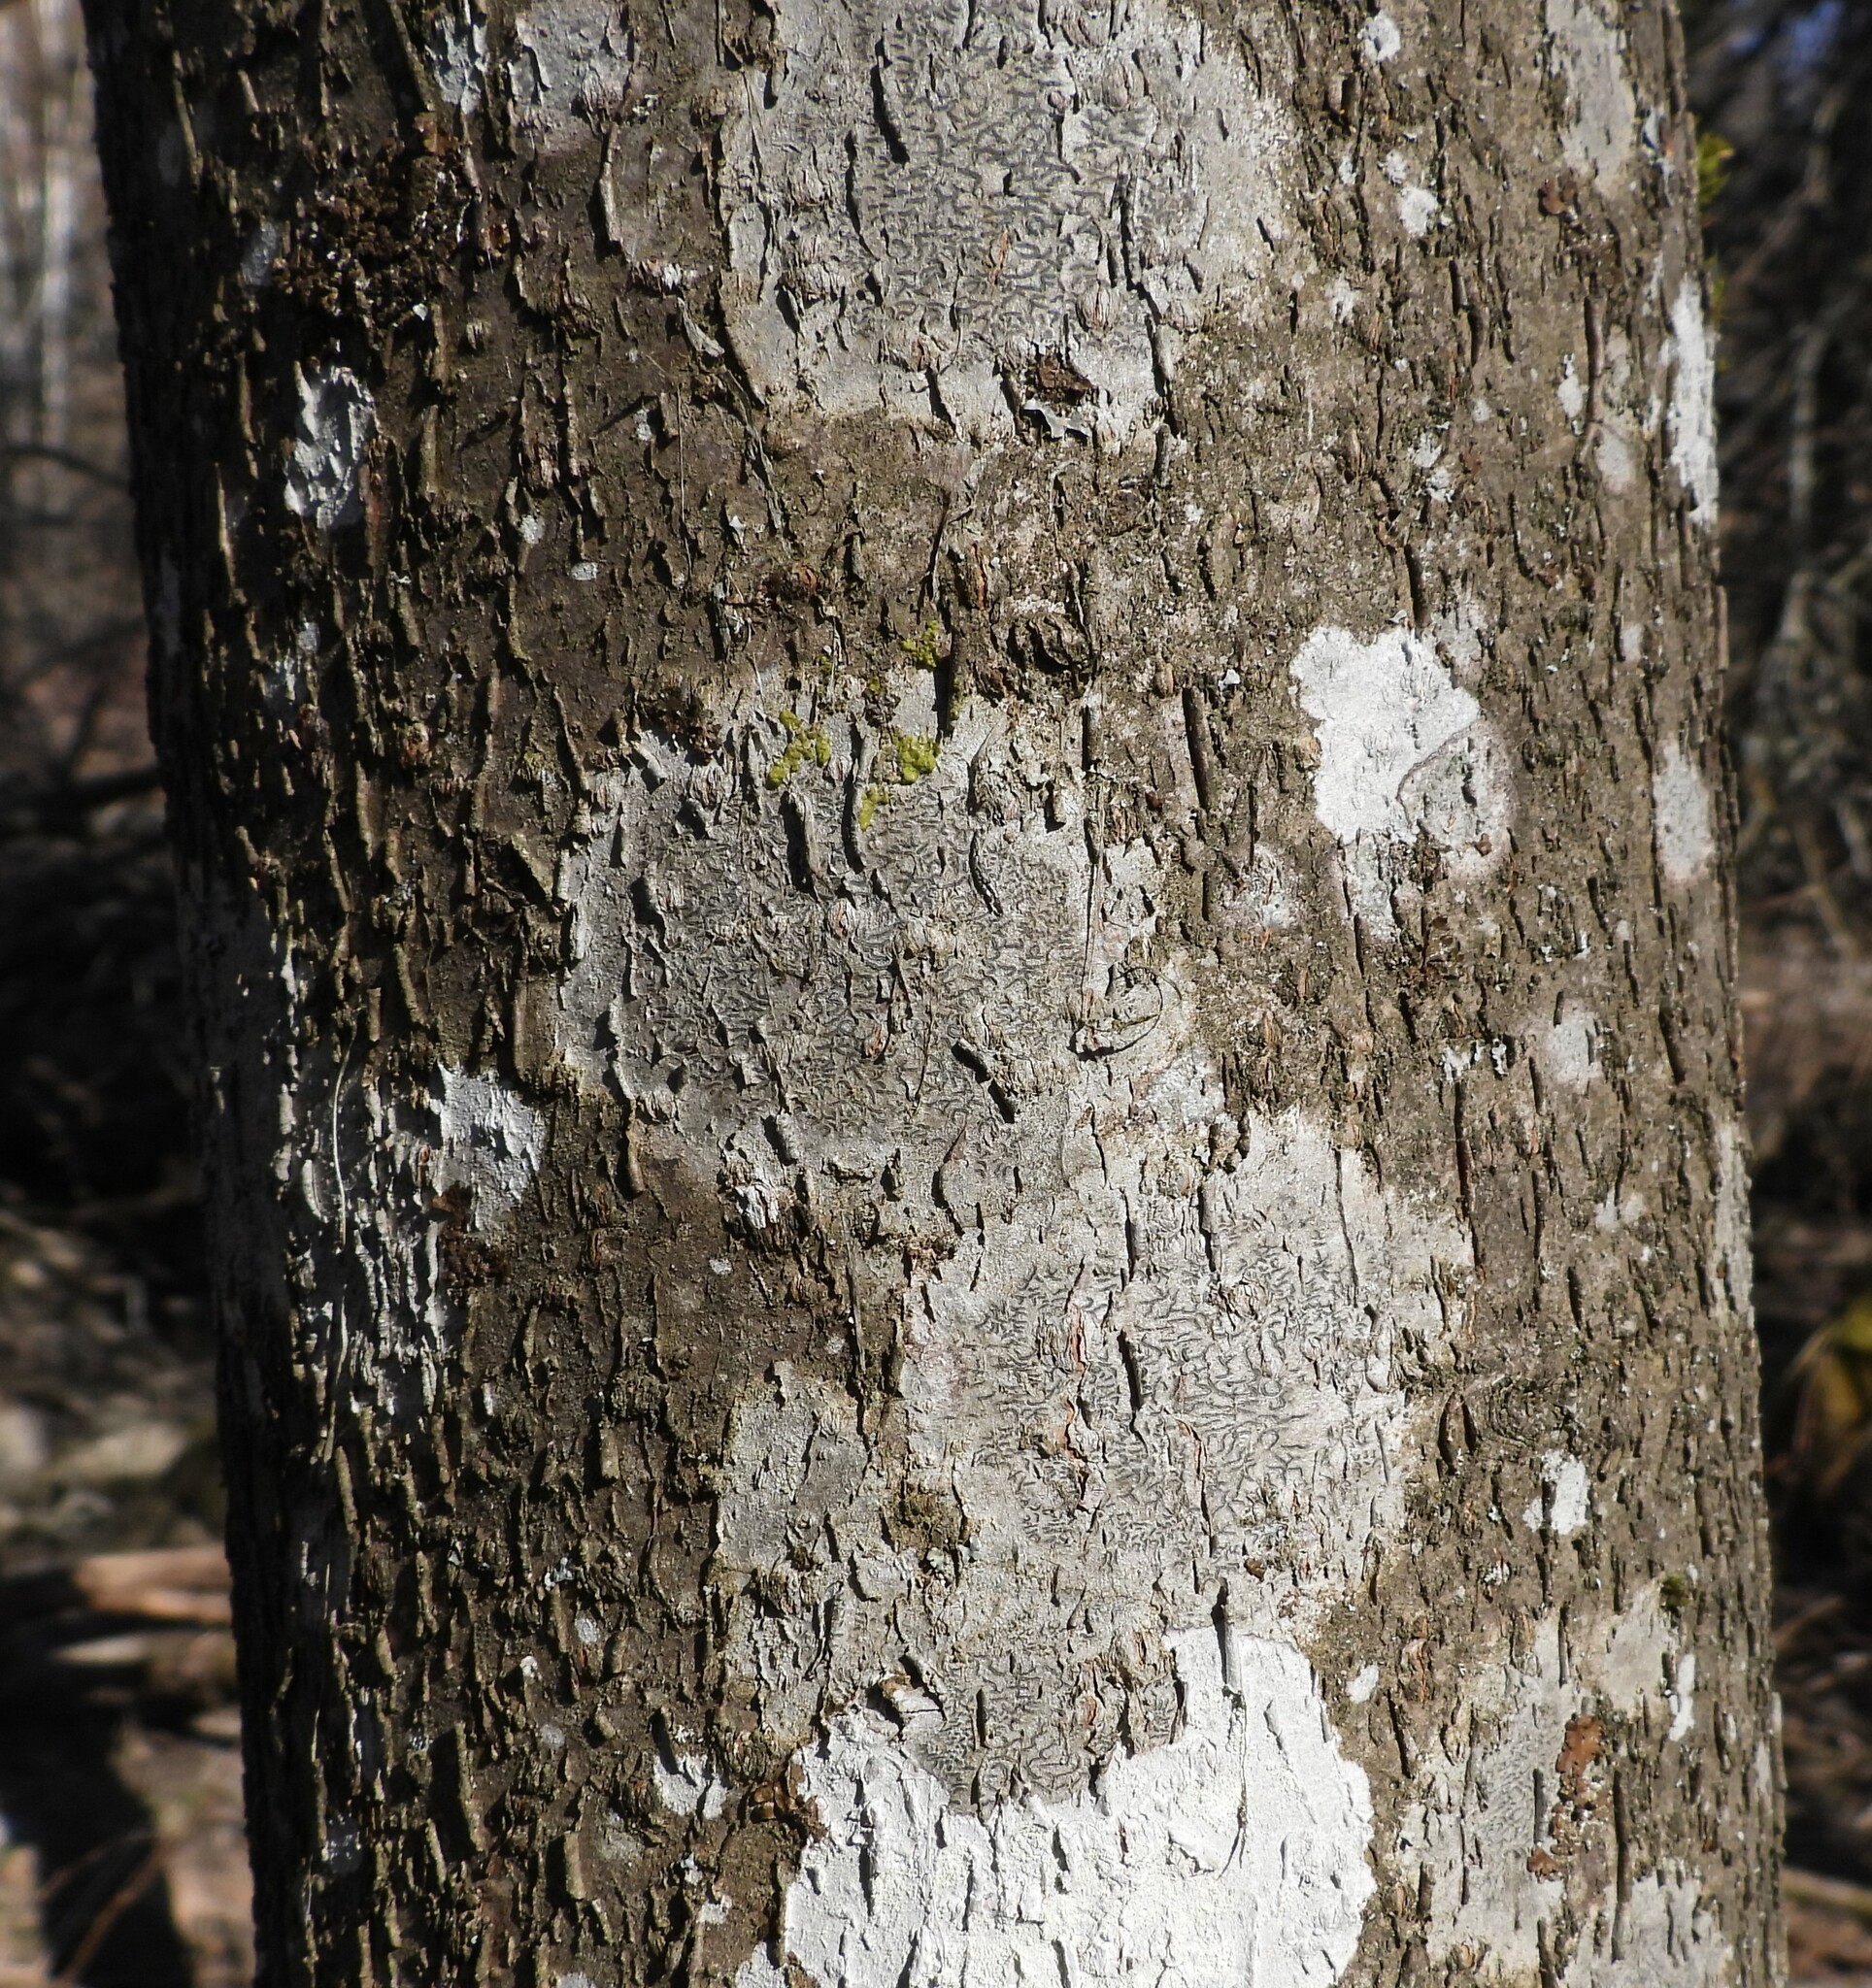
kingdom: Fungi
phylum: Ascomycota
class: Lecanoromycetes
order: Ostropales
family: Graphidaceae
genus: Graphis
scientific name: Graphis scripta
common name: Script lichen
